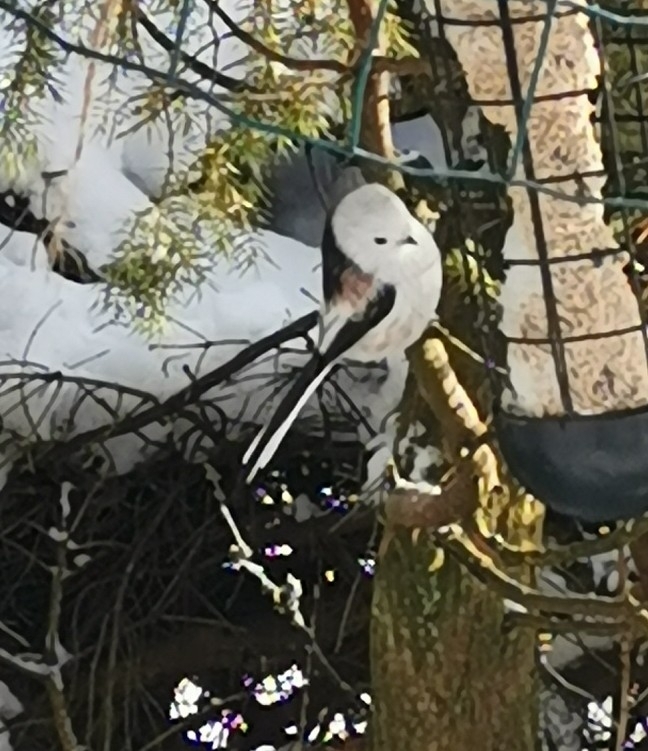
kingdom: Animalia
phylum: Chordata
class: Aves
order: Passeriformes
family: Aegithalidae
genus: Aegithalos
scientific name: Aegithalos caudatus
